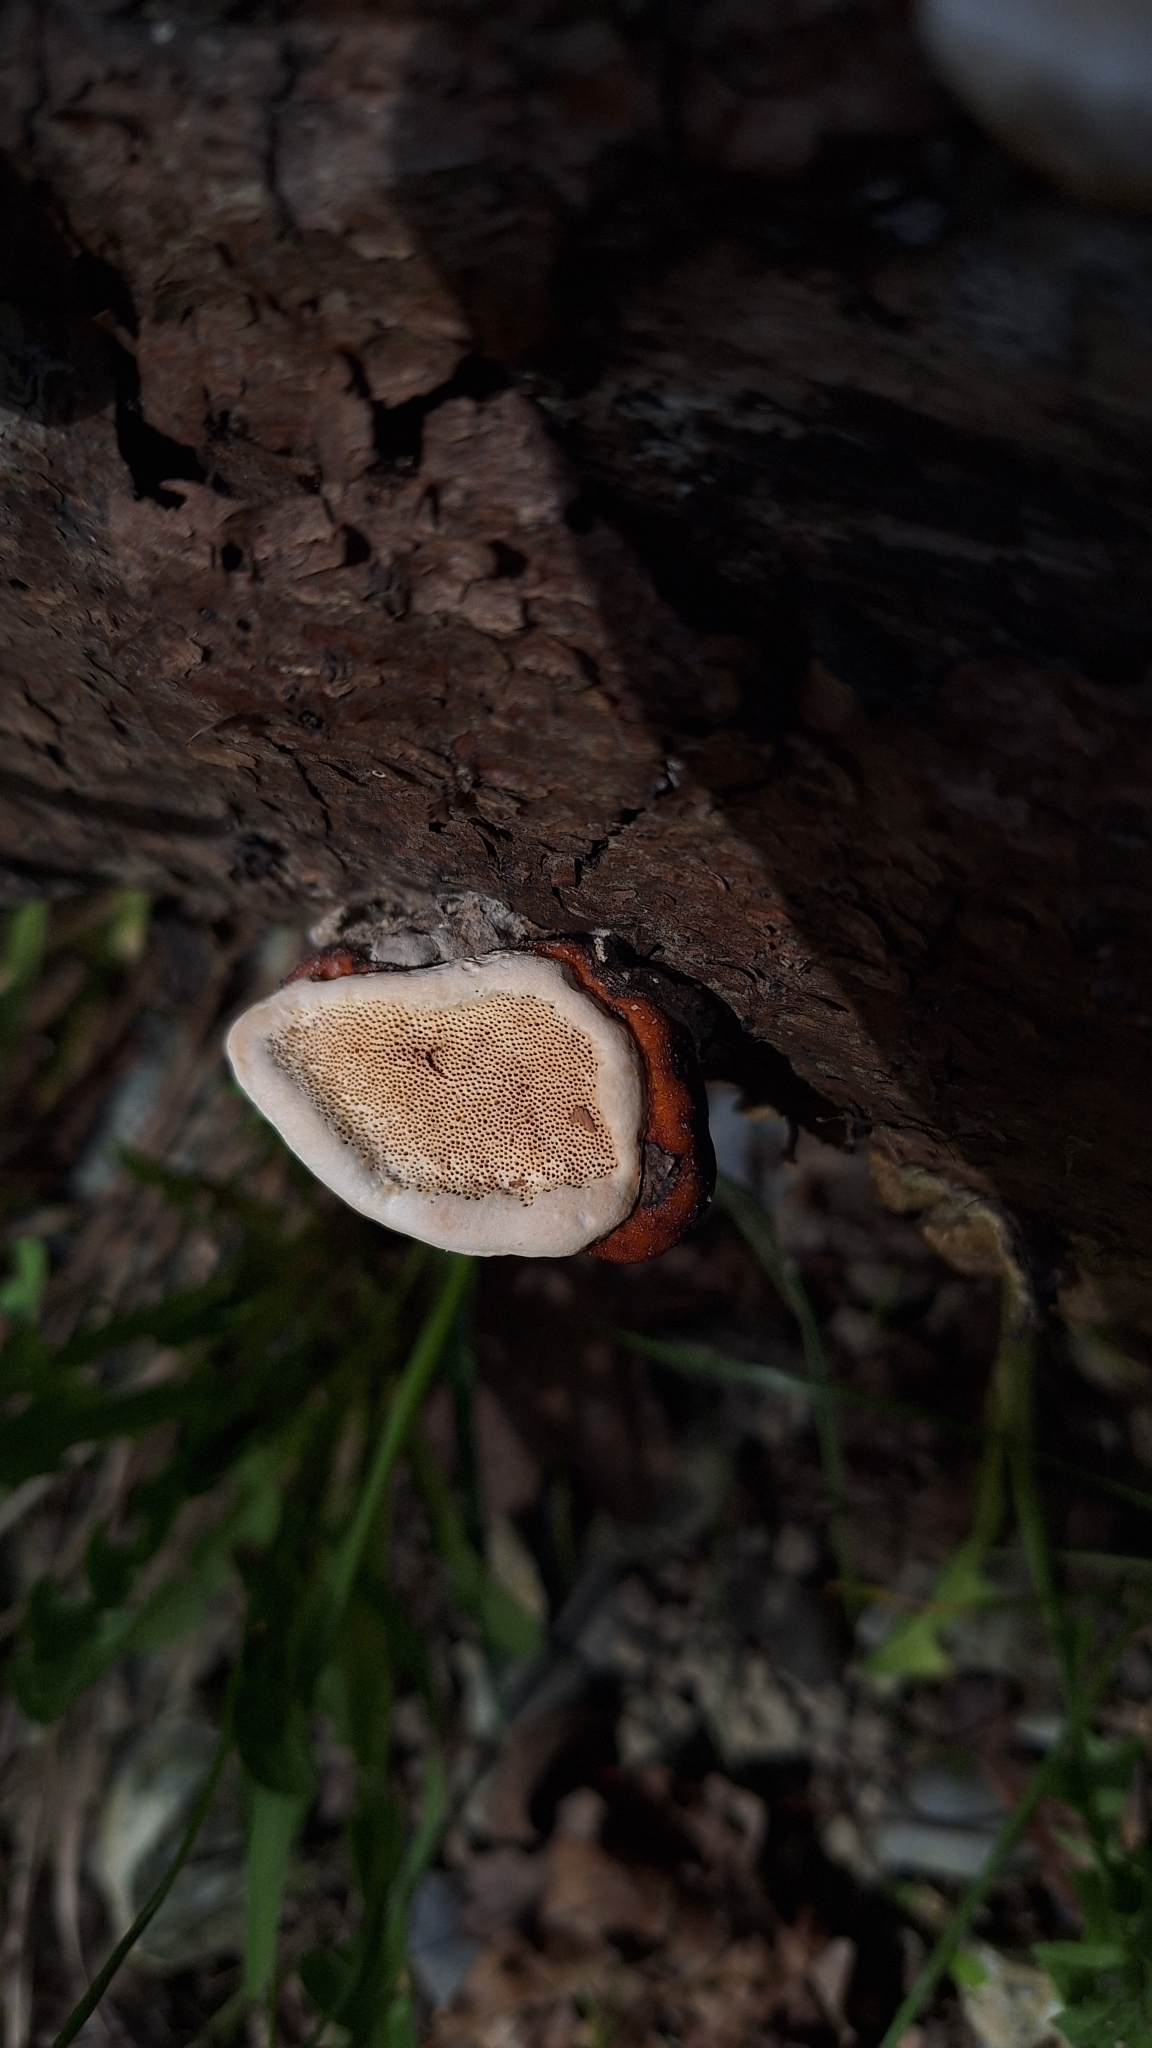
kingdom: Fungi
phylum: Basidiomycota
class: Agaricomycetes
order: Polyporales
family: Fomitopsidaceae
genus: Fomitopsis
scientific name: Fomitopsis pinicola
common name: Red-belted bracket
